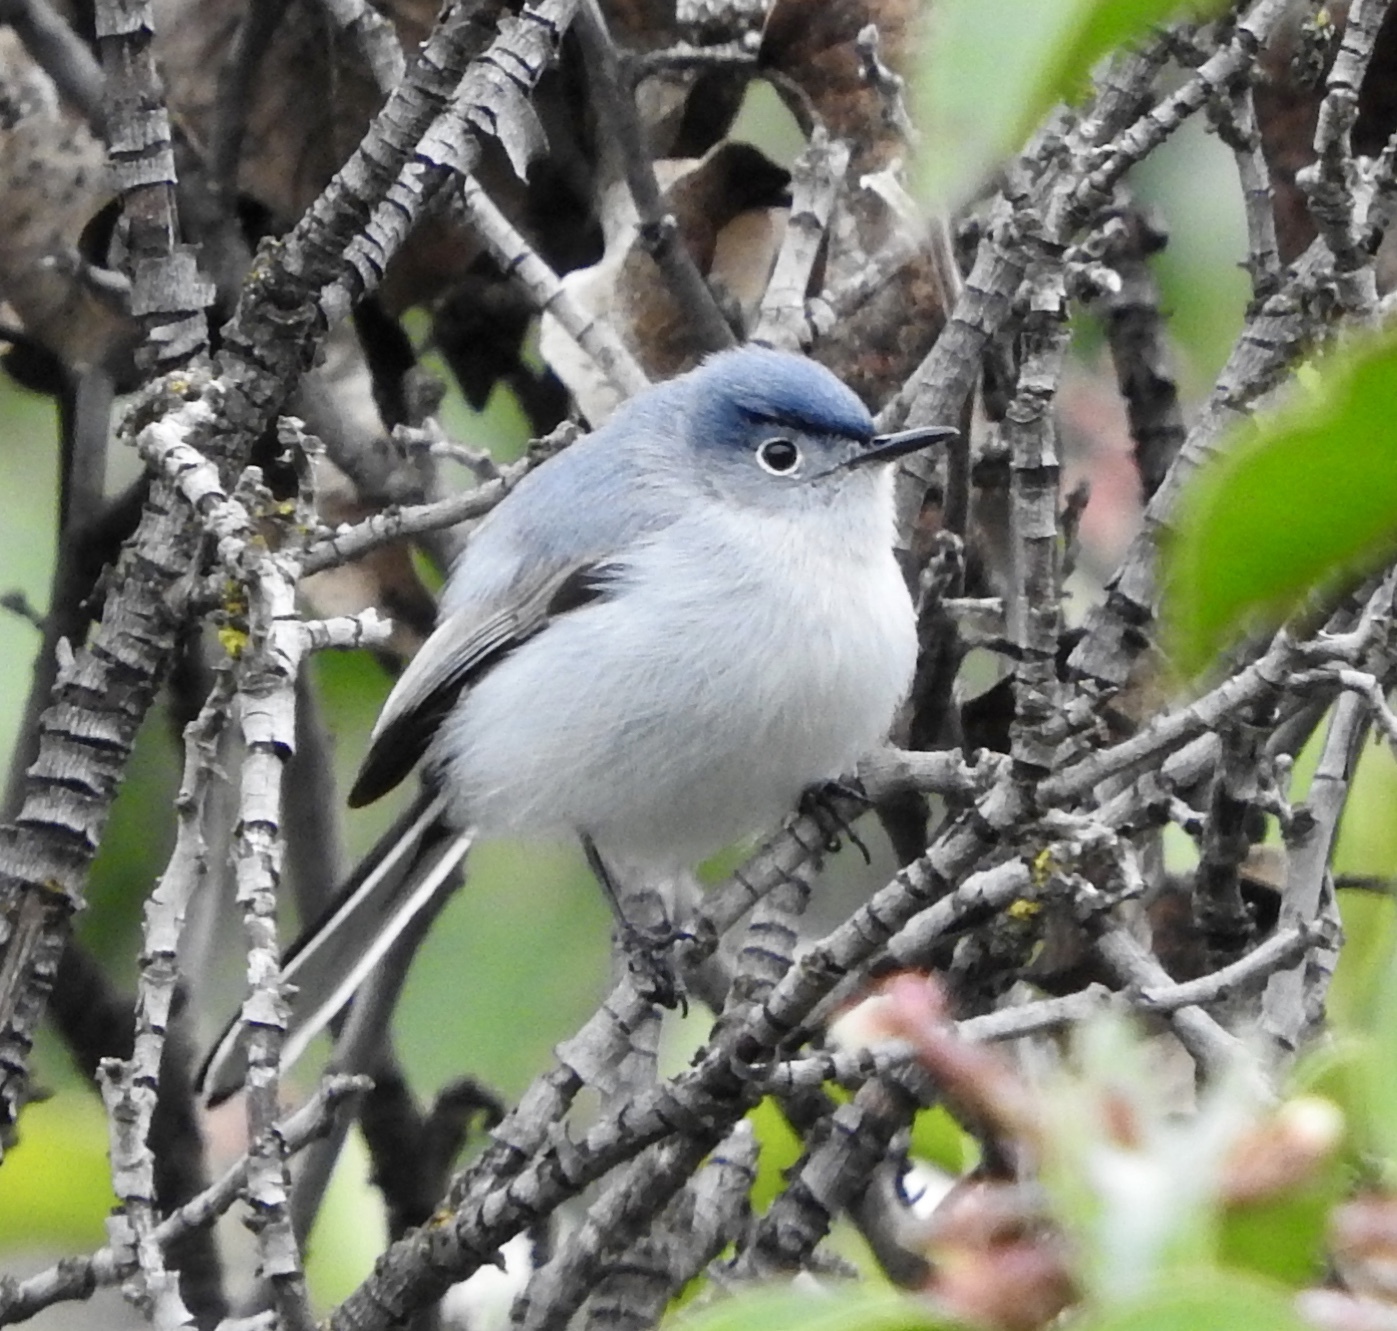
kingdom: Animalia
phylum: Chordata
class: Aves
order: Passeriformes
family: Polioptilidae
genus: Polioptila
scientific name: Polioptila caerulea
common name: Blue-gray gnatcatcher
